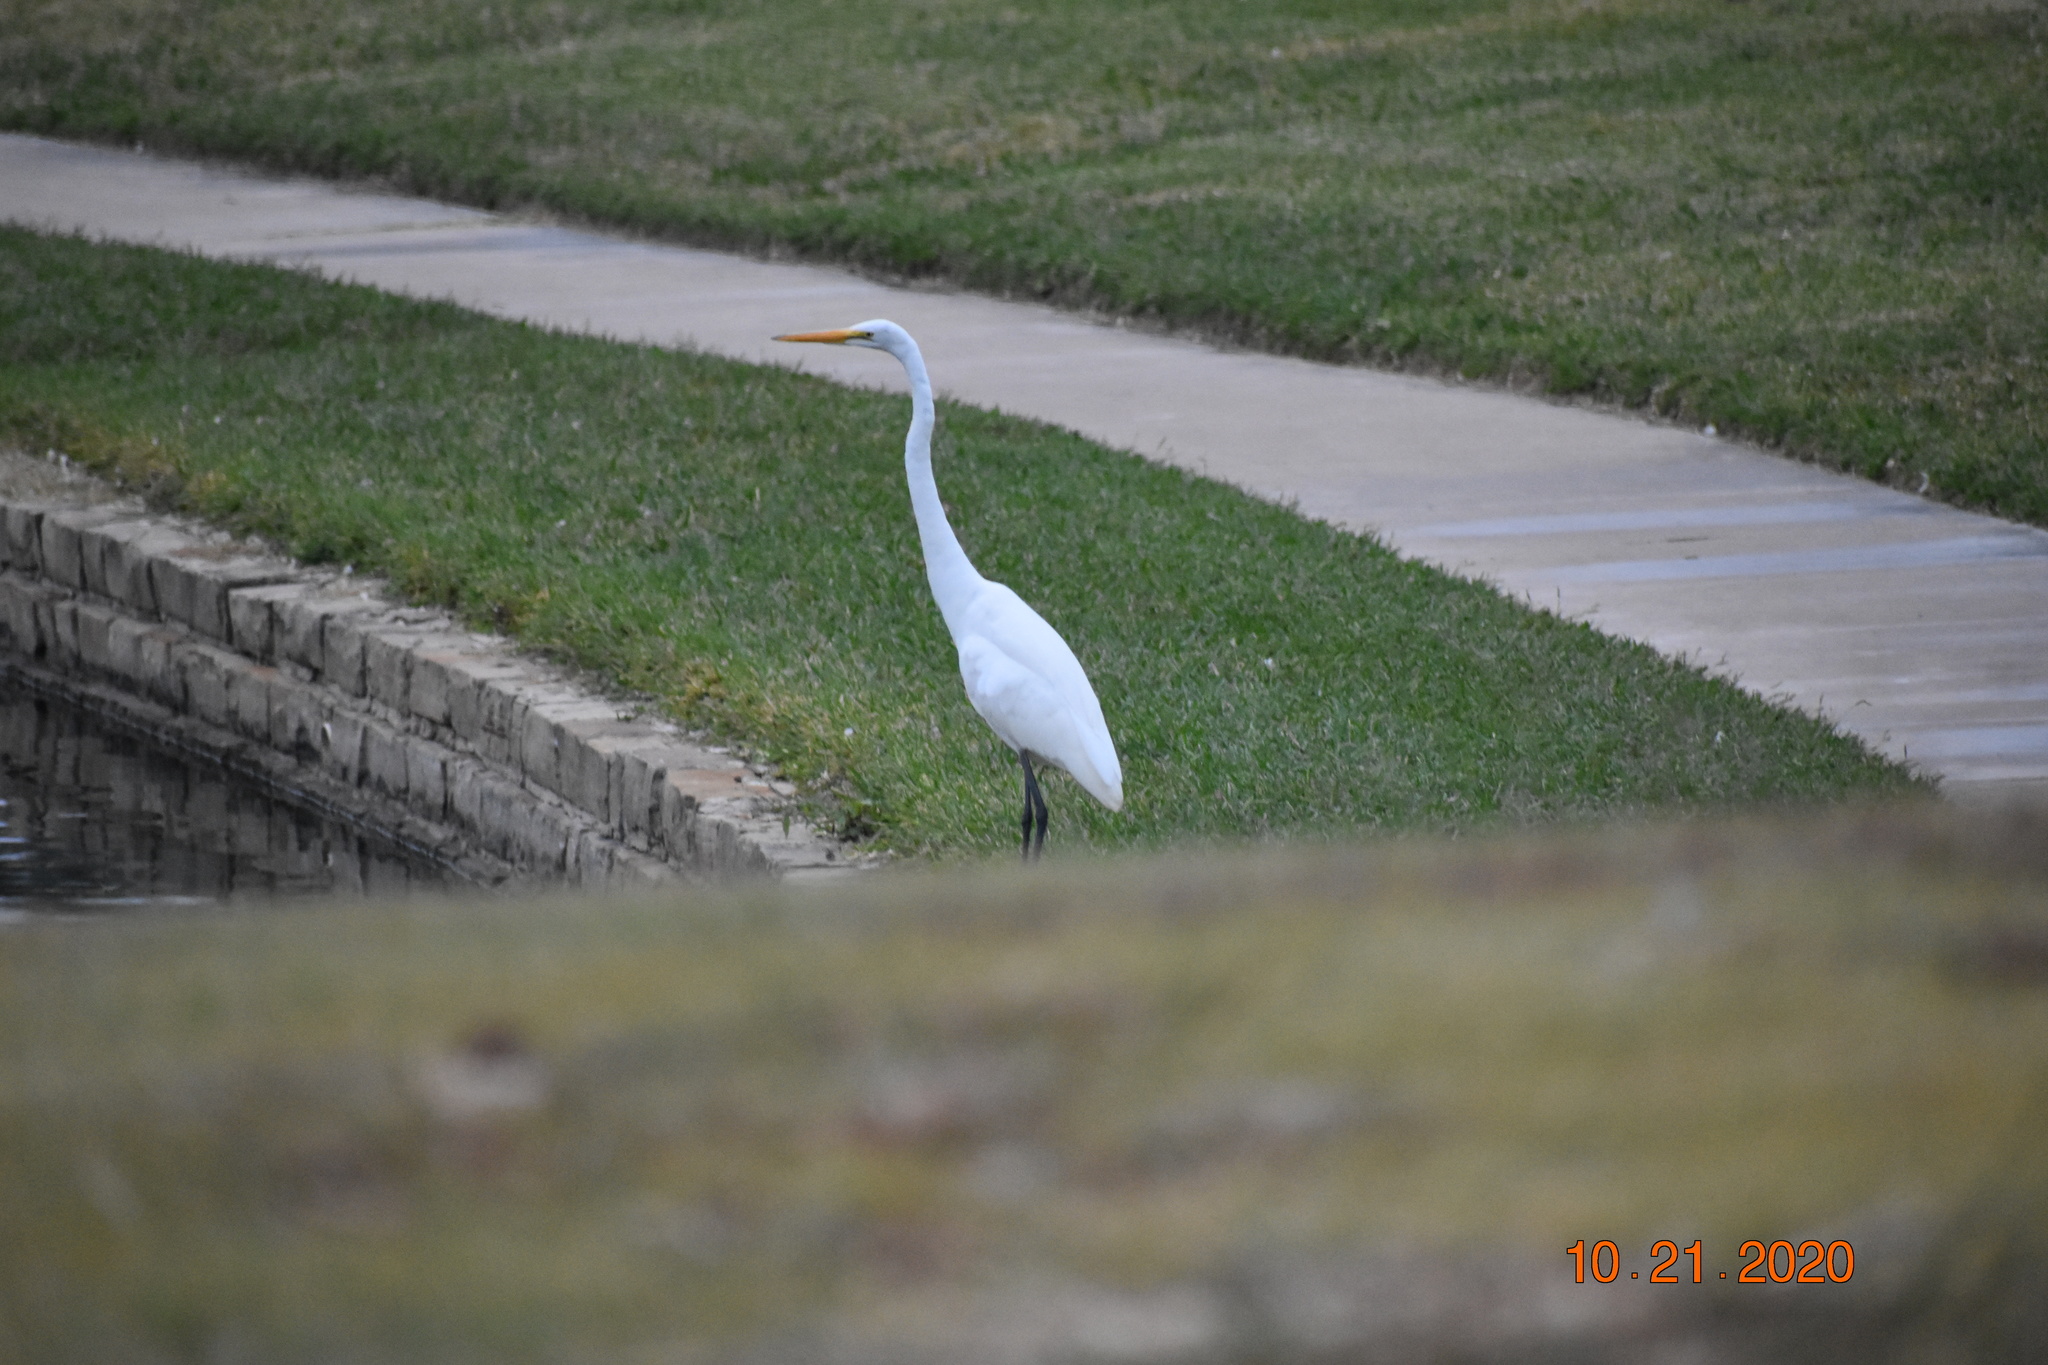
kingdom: Animalia
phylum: Chordata
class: Aves
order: Pelecaniformes
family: Ardeidae
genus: Ardea
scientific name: Ardea alba
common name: Great egret
